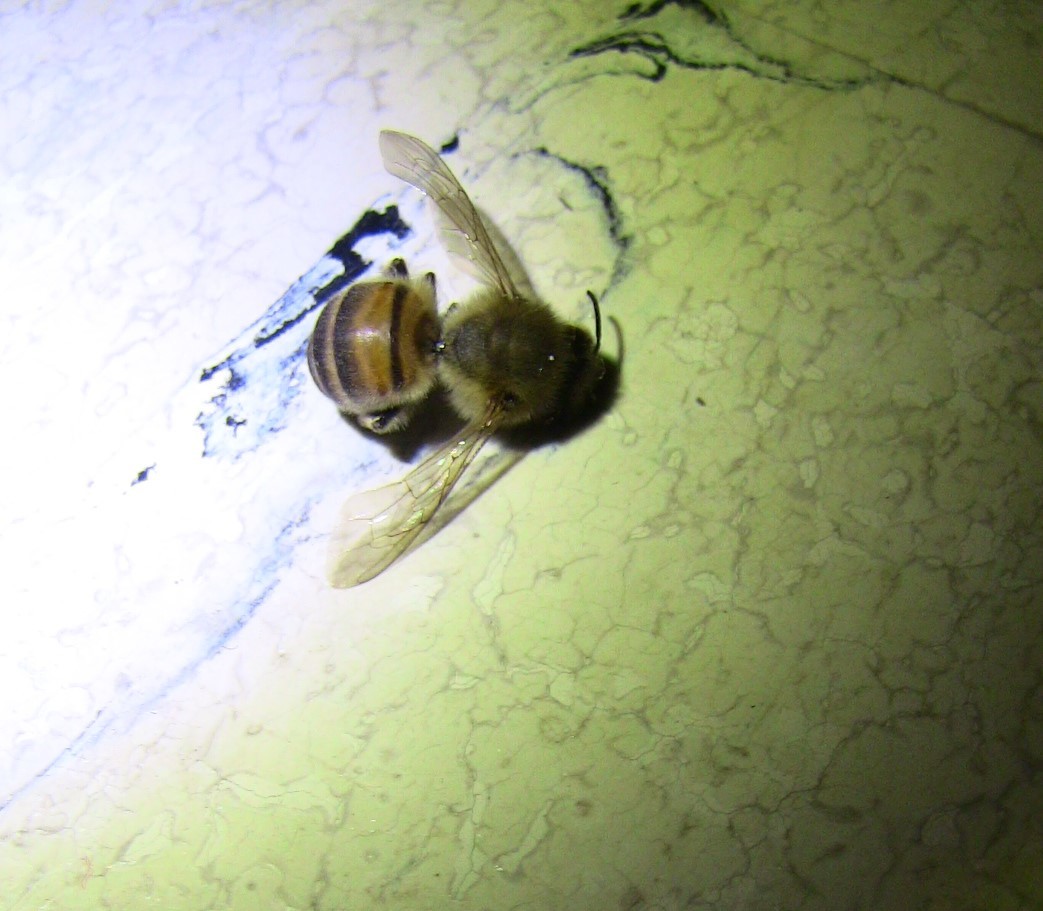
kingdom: Animalia
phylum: Arthropoda
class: Insecta
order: Hymenoptera
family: Apidae
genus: Apis
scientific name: Apis mellifera
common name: Honey bee
